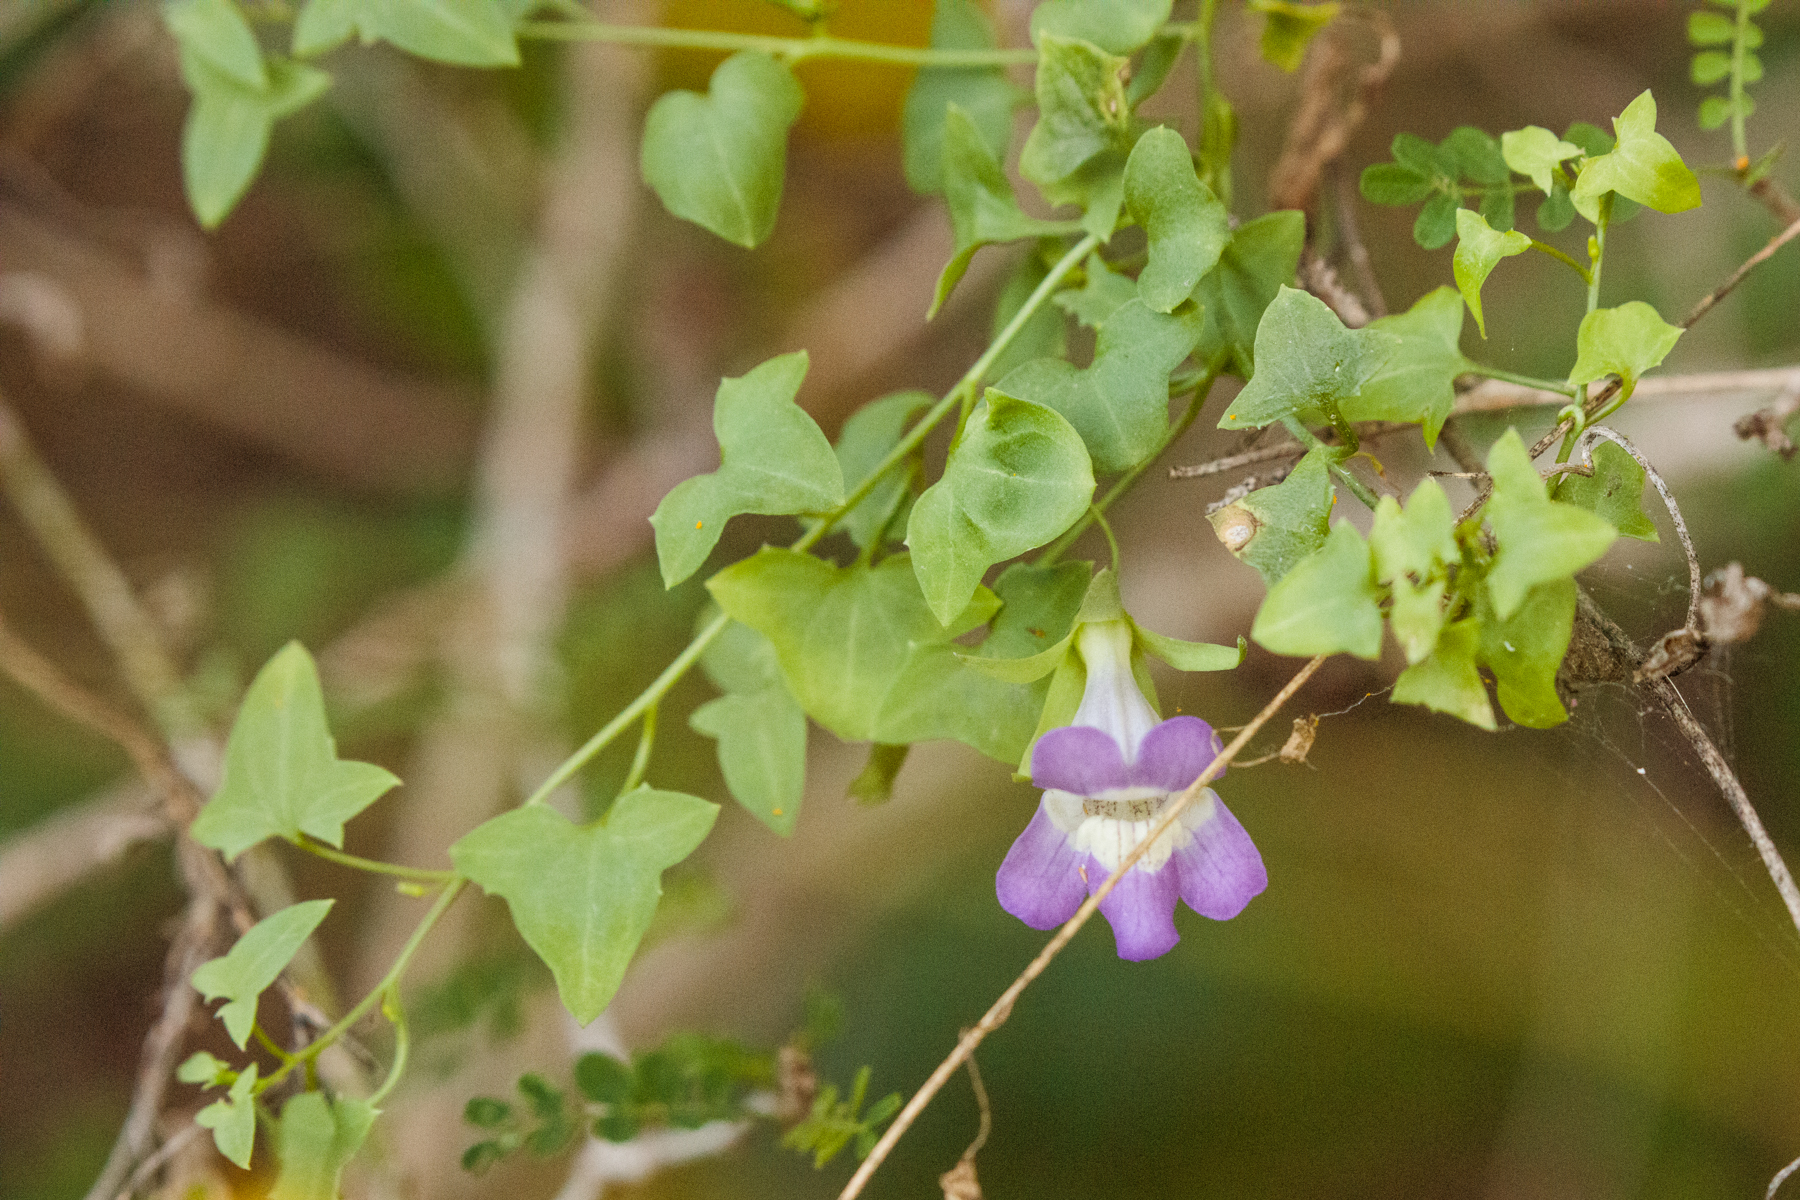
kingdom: Plantae
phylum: Tracheophyta
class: Magnoliopsida
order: Lamiales
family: Plantaginaceae
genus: Maurandella
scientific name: Maurandella antirrhiniflora
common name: Violet twining-snapdragon
